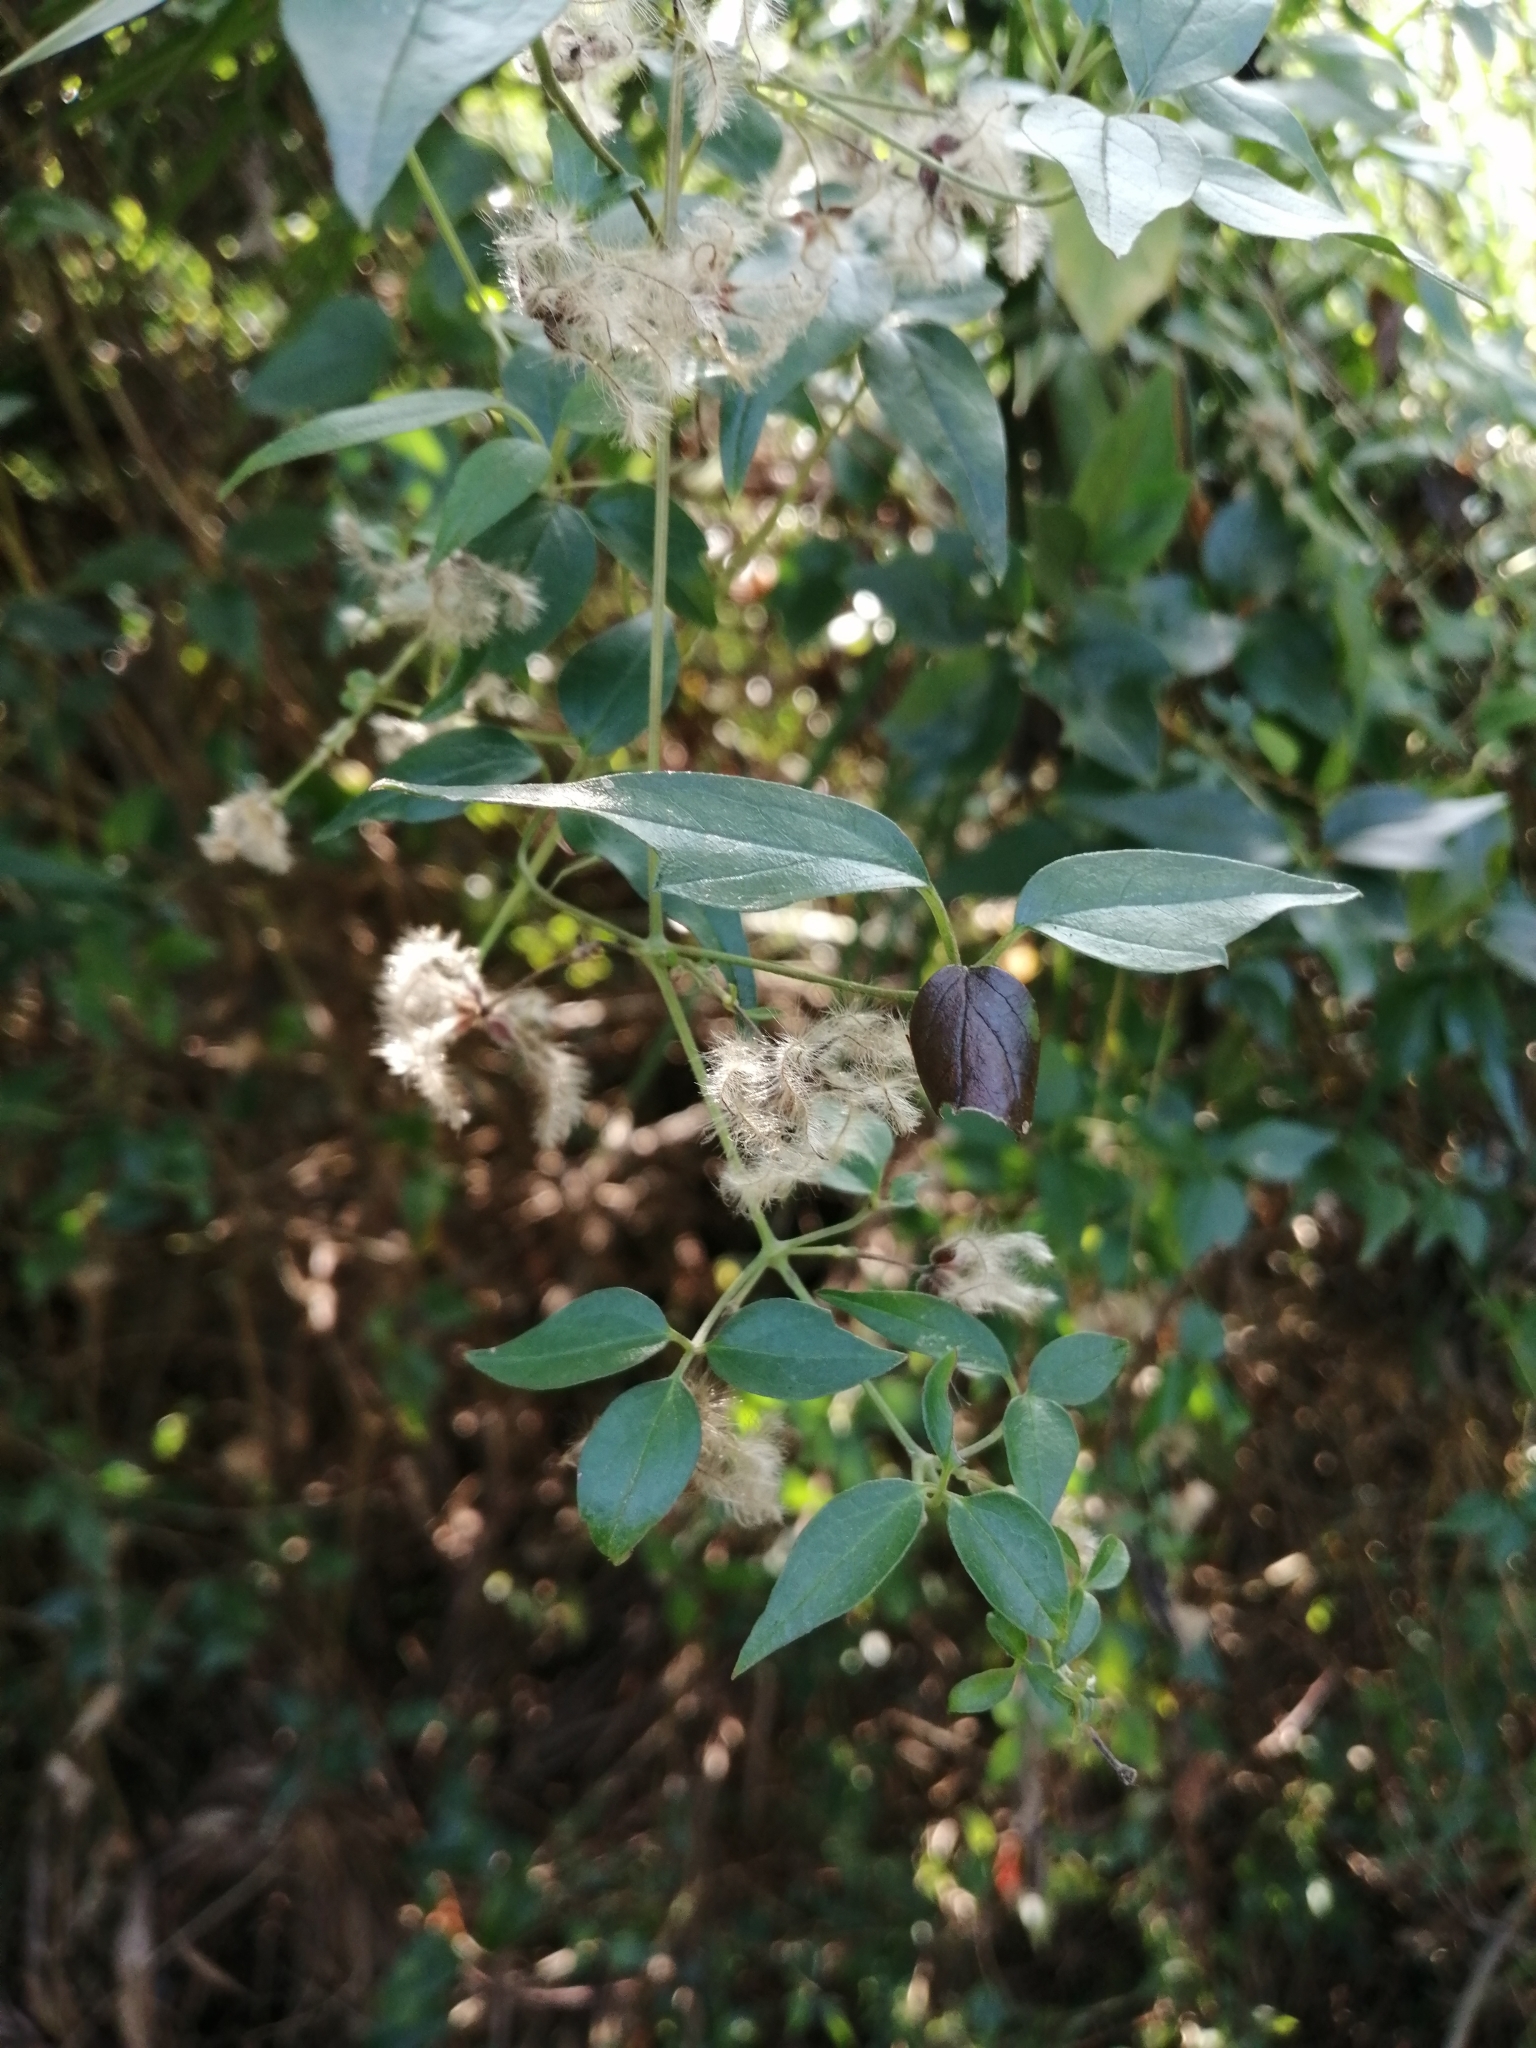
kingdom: Plantae
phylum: Tracheophyta
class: Magnoliopsida
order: Ranunculales
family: Ranunculaceae
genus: Clematis
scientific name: Clematis formosana
